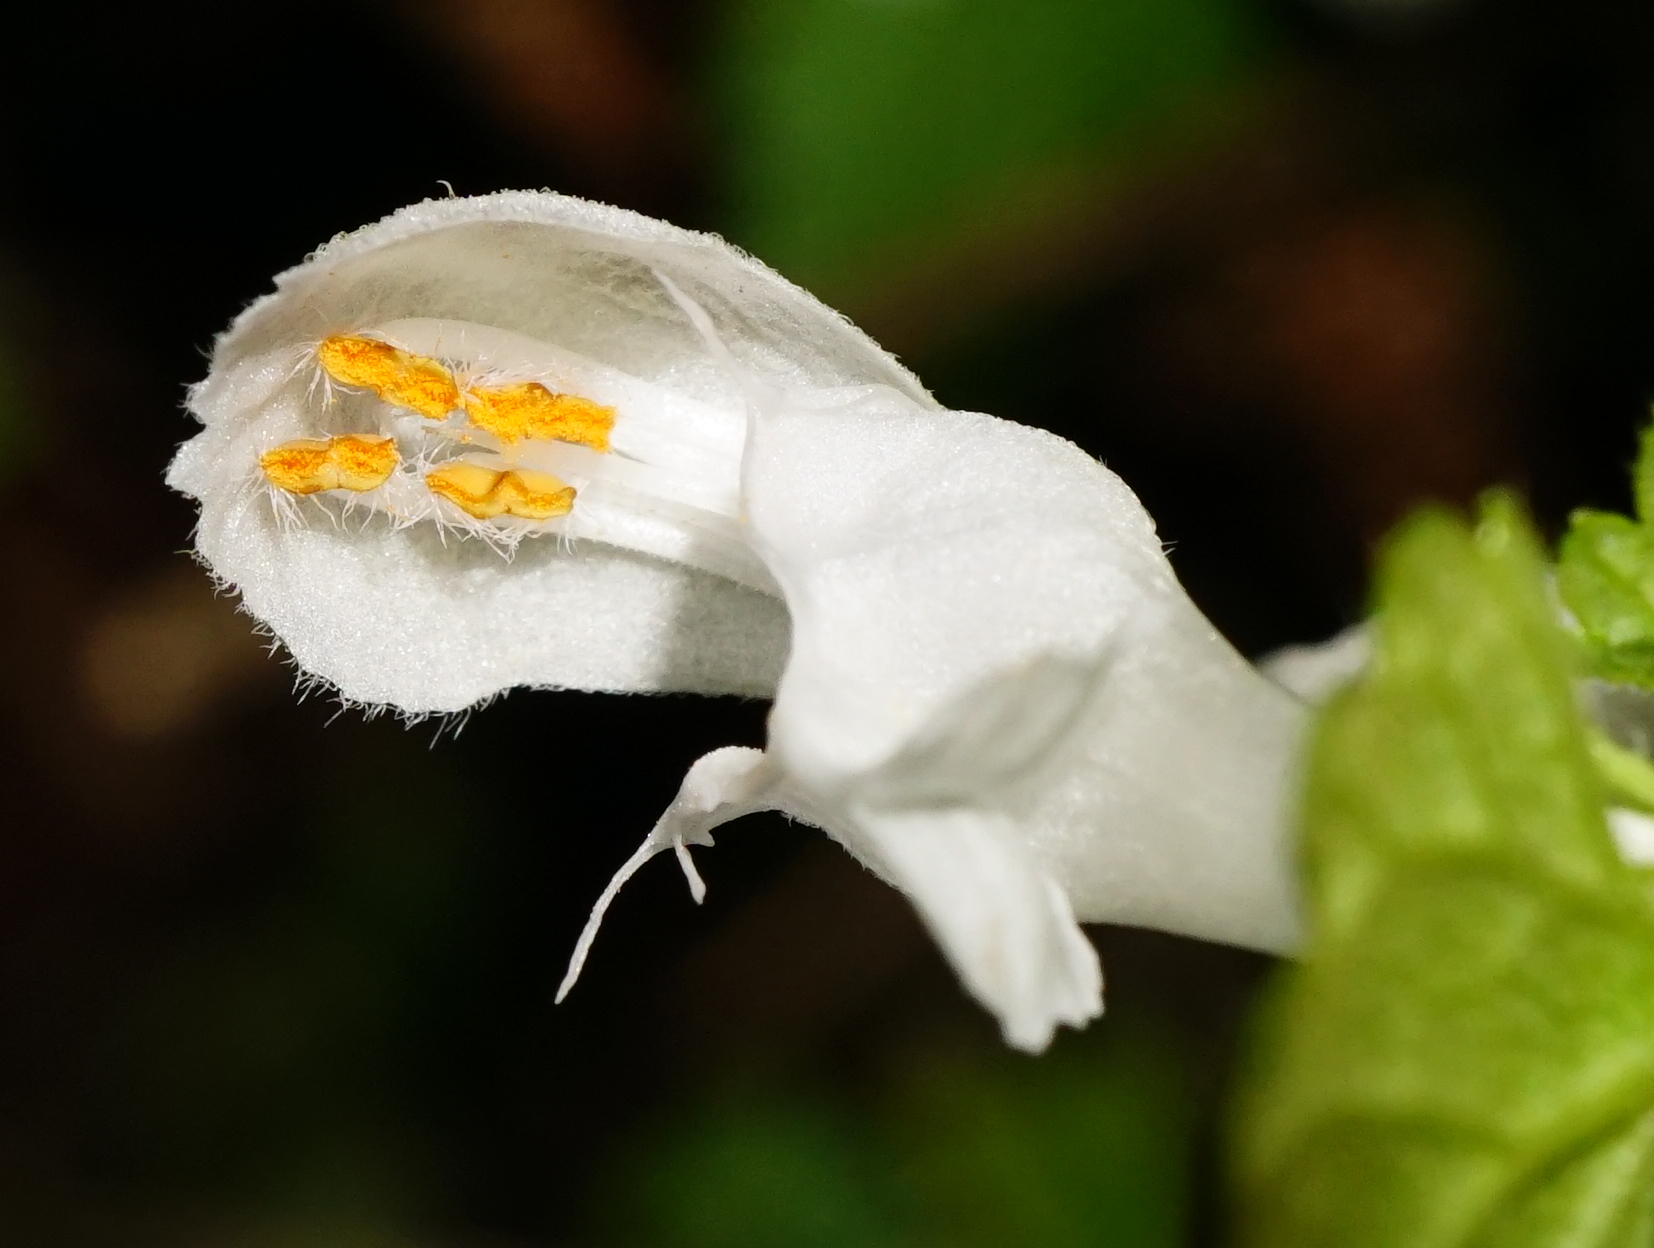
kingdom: Plantae
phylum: Tracheophyta
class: Magnoliopsida
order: Lamiales
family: Lamiaceae
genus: Lamium
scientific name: Lamium maculatum
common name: Spotted dead-nettle
